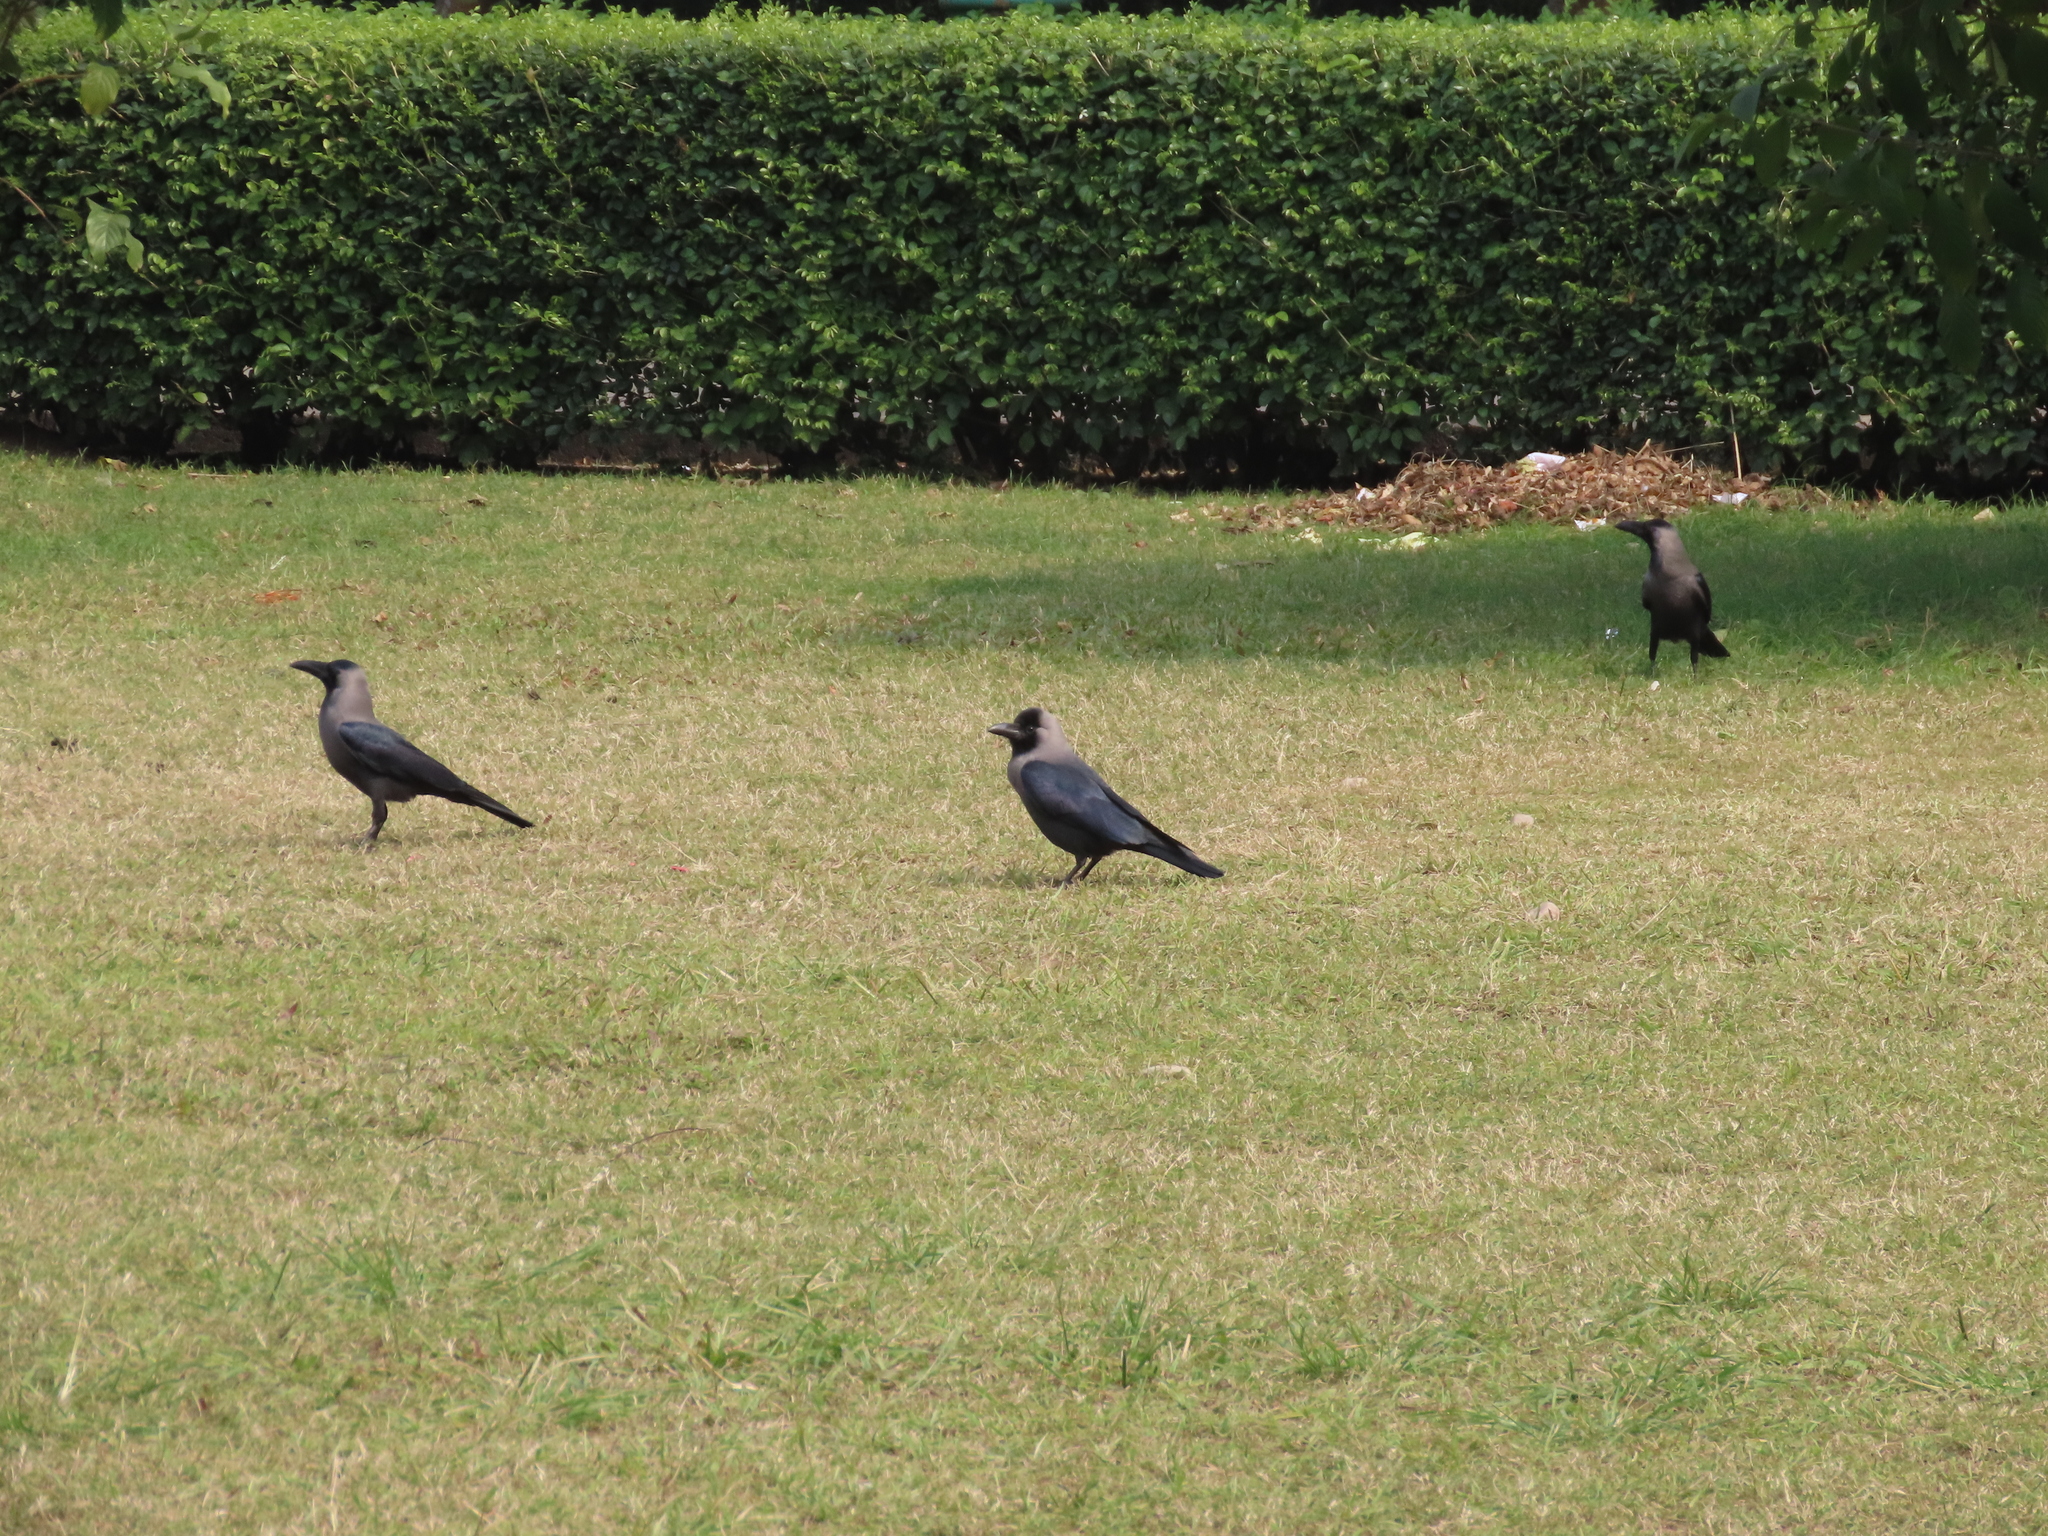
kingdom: Animalia
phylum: Chordata
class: Aves
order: Passeriformes
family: Corvidae
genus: Corvus
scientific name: Corvus splendens
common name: House crow
